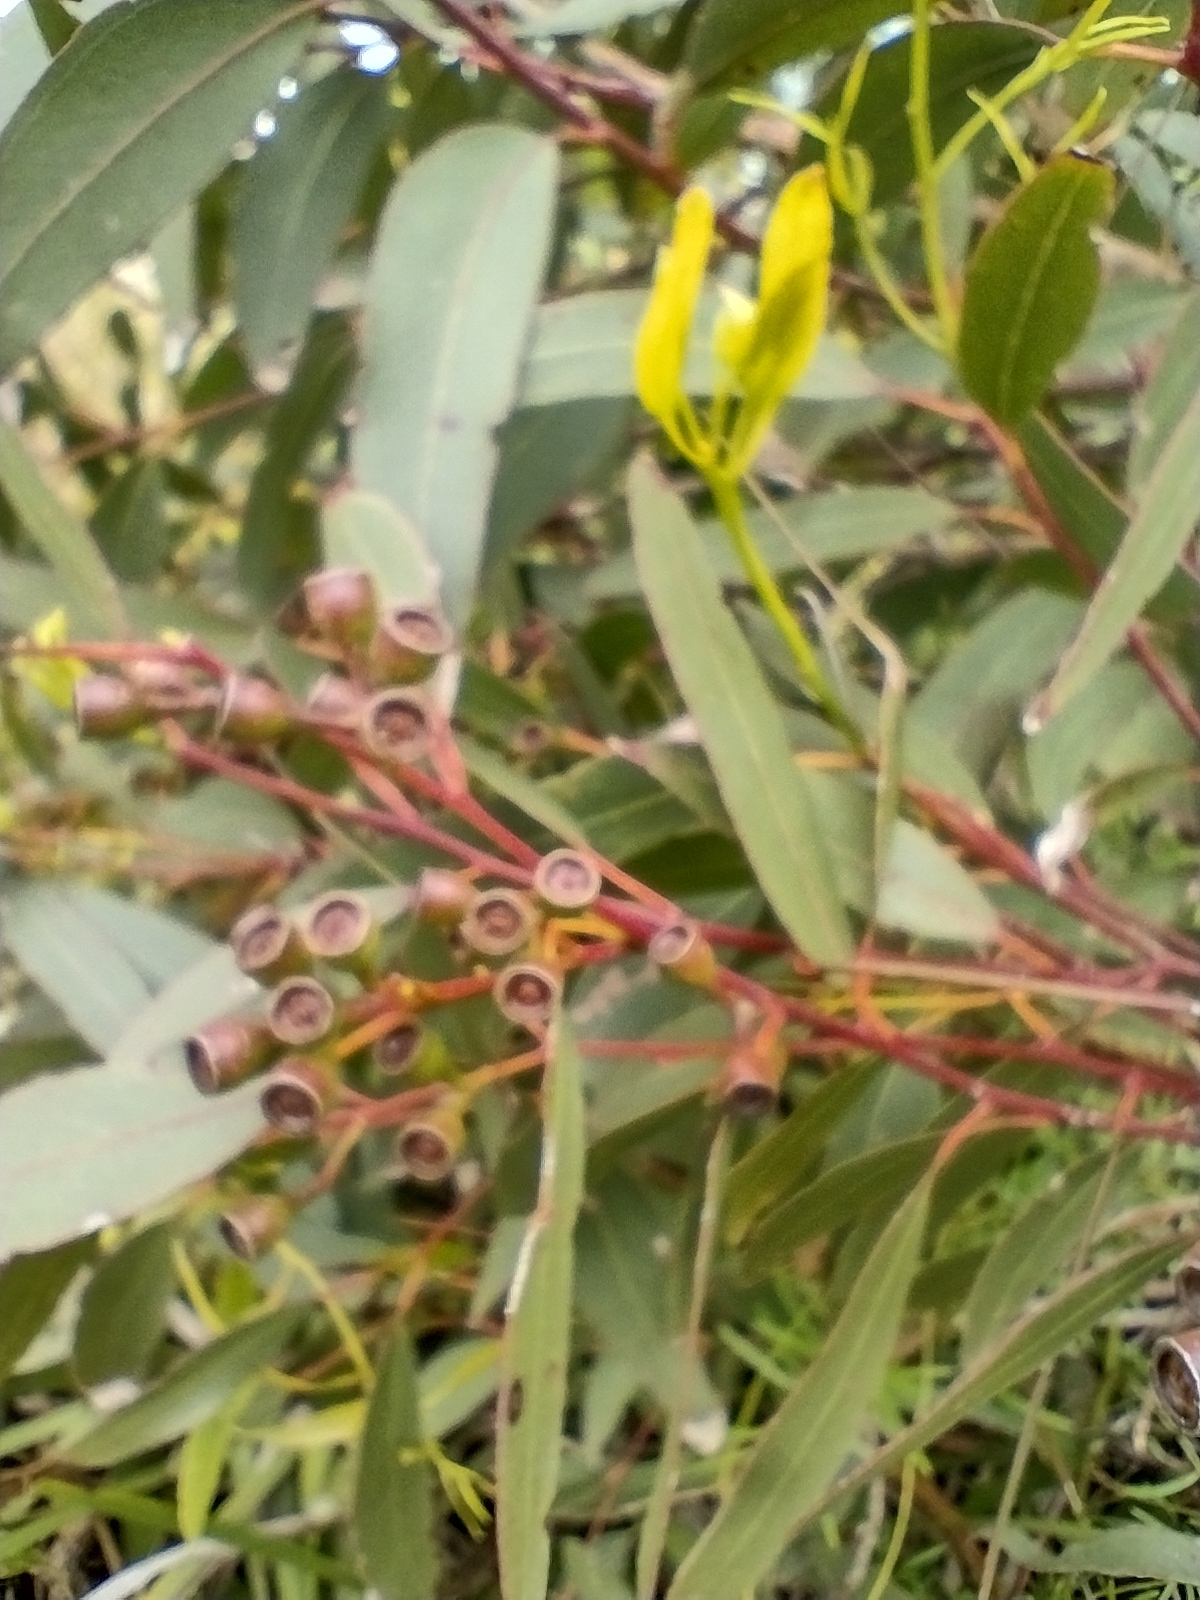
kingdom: Plantae
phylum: Tracheophyta
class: Magnoliopsida
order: Myrtales
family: Myrtaceae
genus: Eucalyptus
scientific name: Eucalyptus bosistoana
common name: Bosisto's-box
